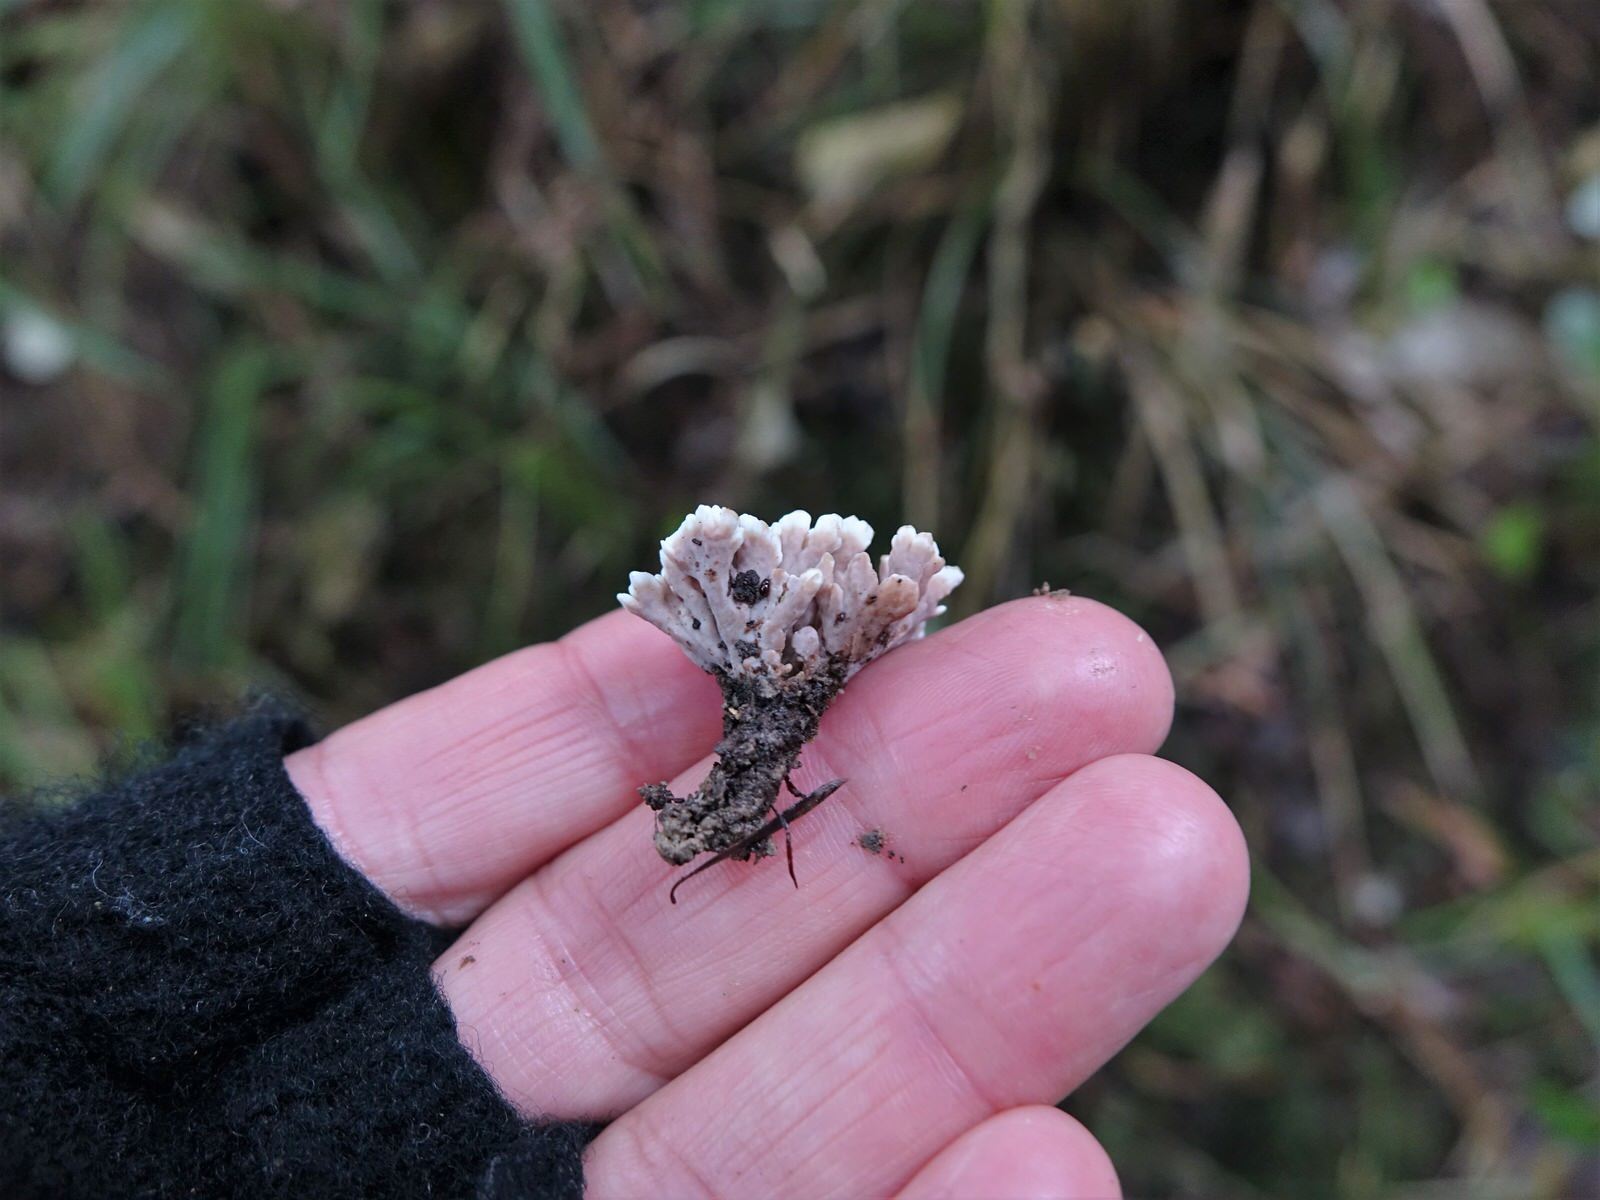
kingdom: Fungi
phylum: Basidiomycota
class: Agaricomycetes
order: Stereopsidales
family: Stereopsidaceae
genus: Stereopsis
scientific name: Stereopsis hiscens
